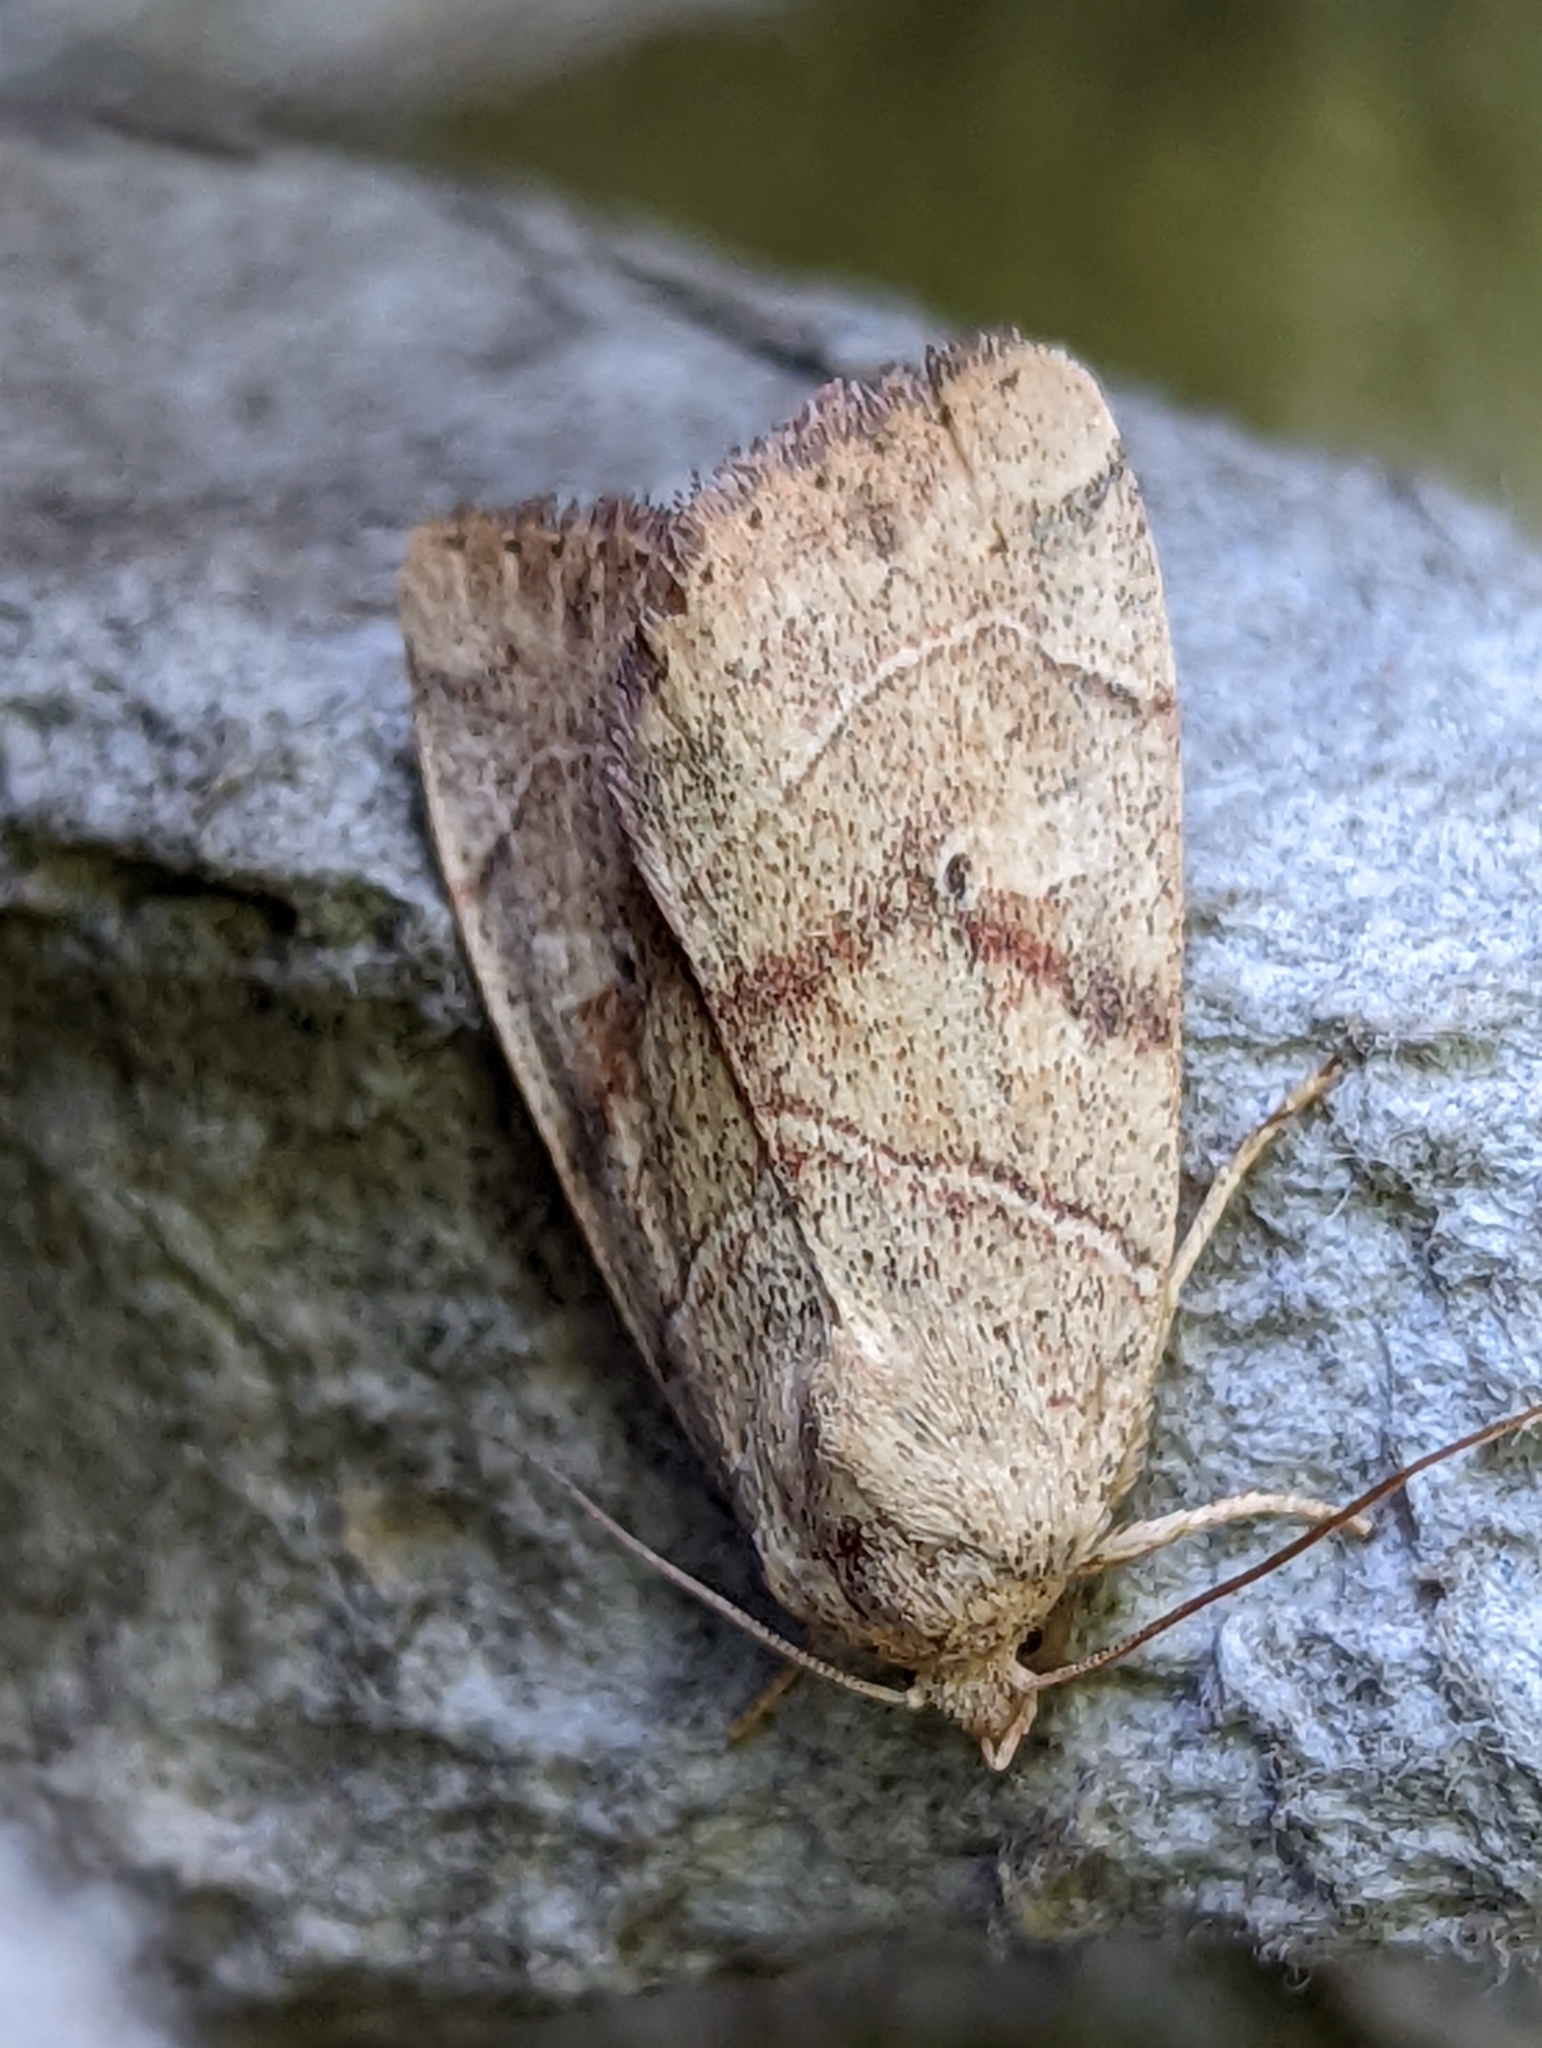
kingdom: Animalia
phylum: Arthropoda
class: Insecta
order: Lepidoptera
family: Noctuidae
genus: Cosmia
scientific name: Cosmia trapezina
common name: Dun-bar
